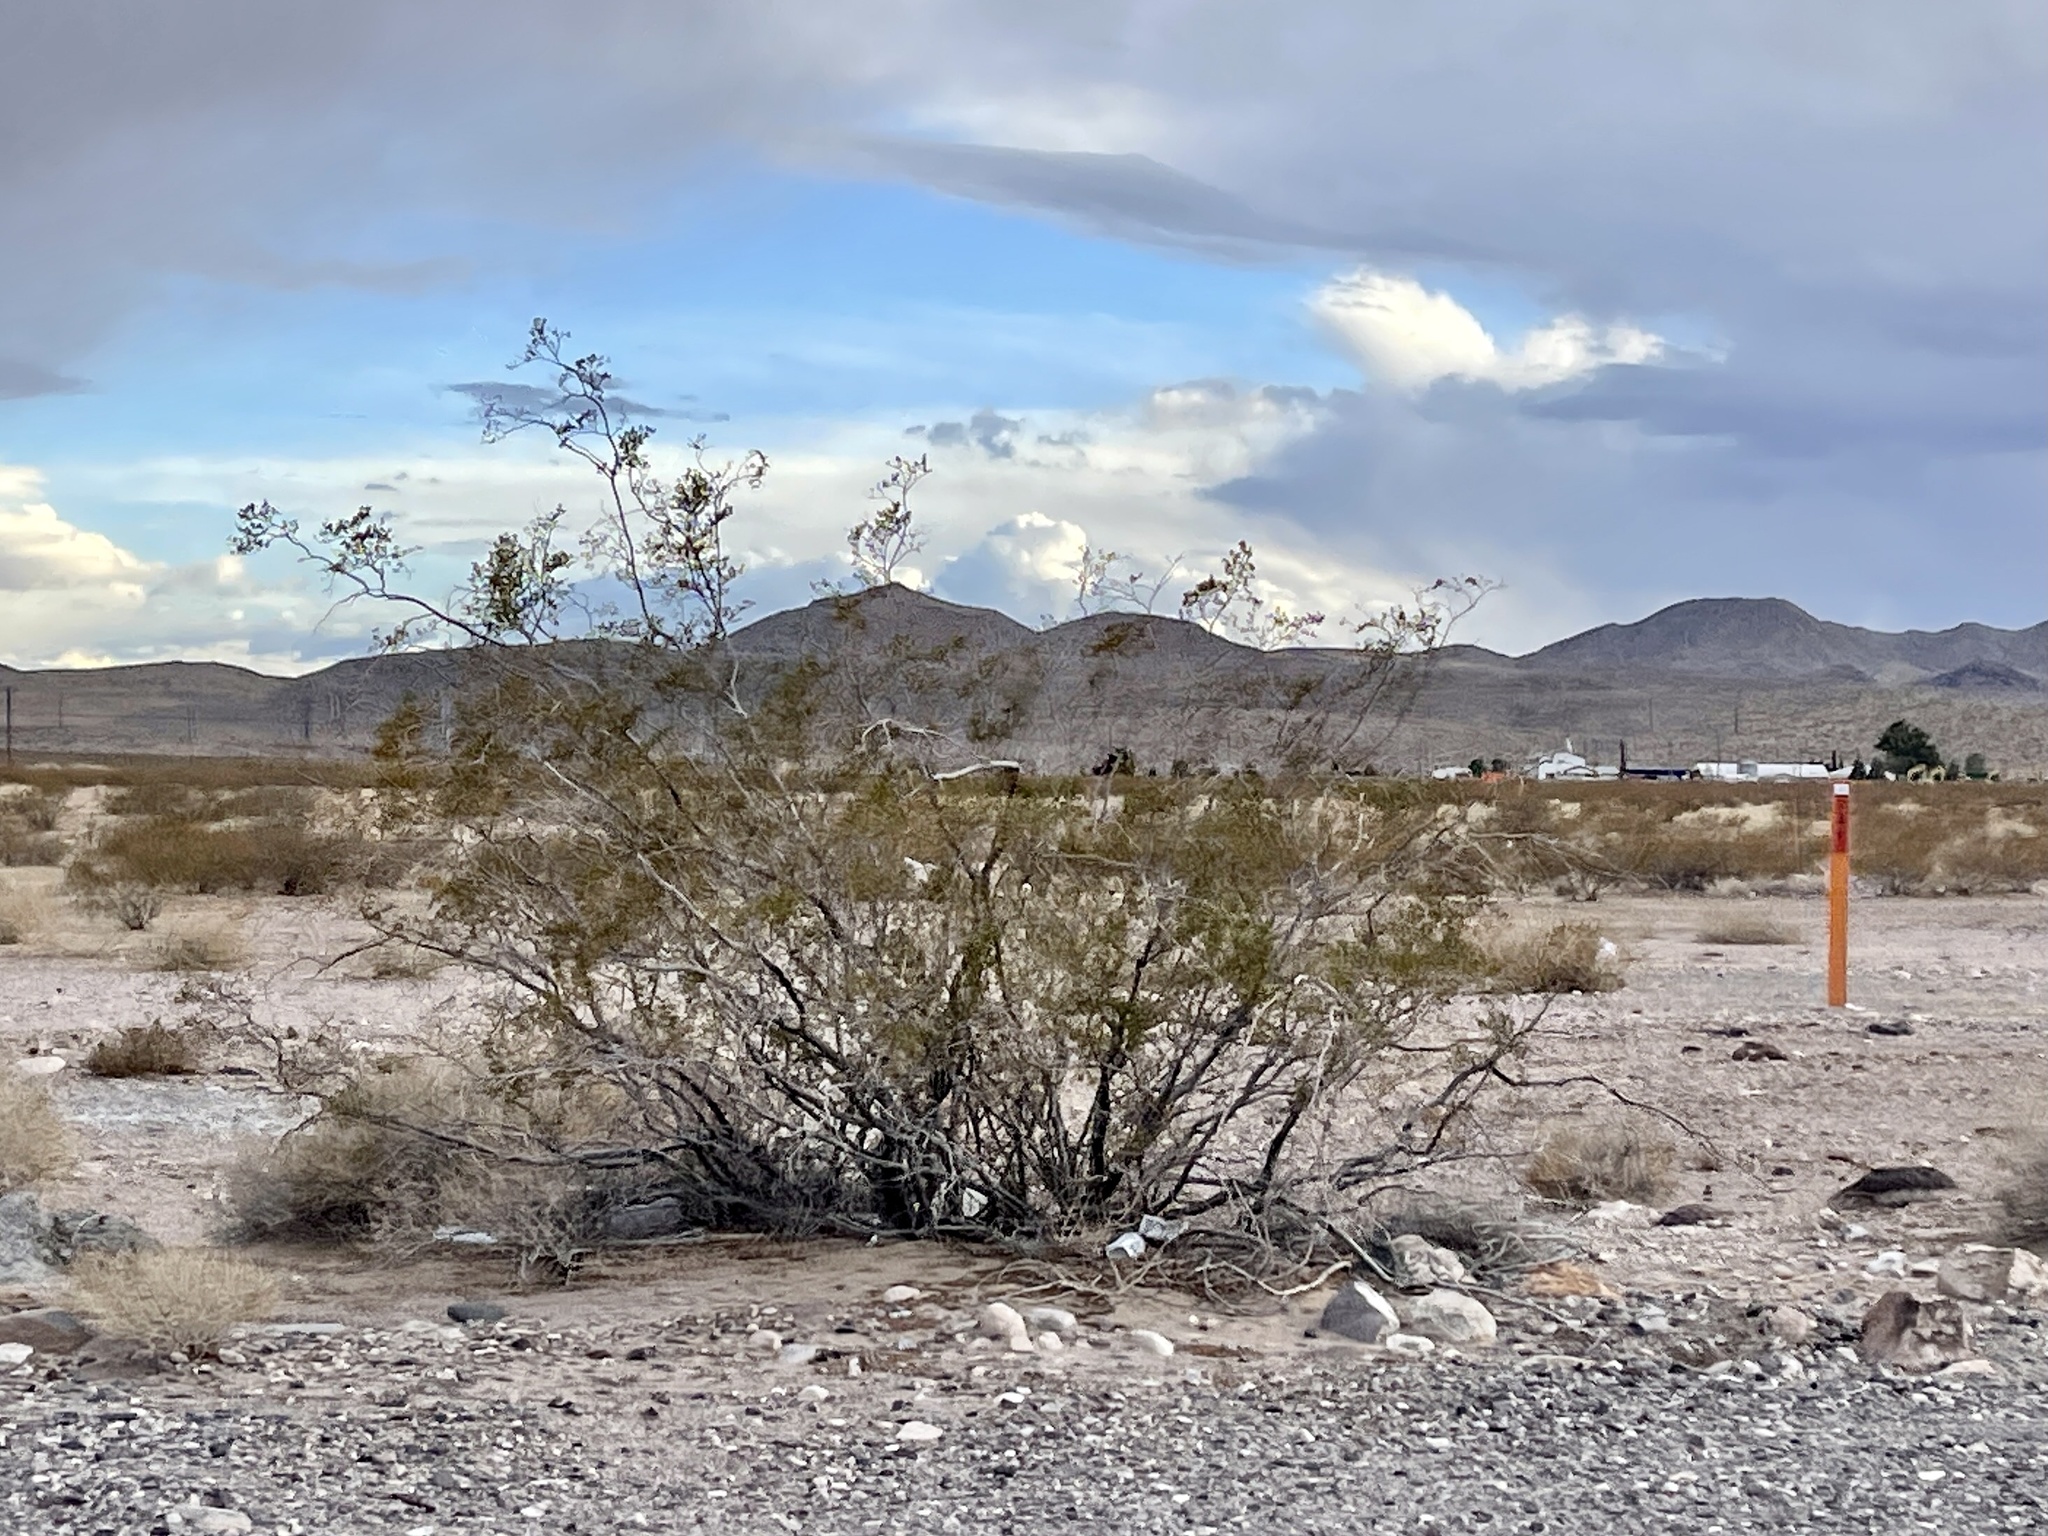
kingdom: Plantae
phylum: Tracheophyta
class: Magnoliopsida
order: Zygophyllales
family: Zygophyllaceae
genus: Larrea
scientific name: Larrea tridentata
